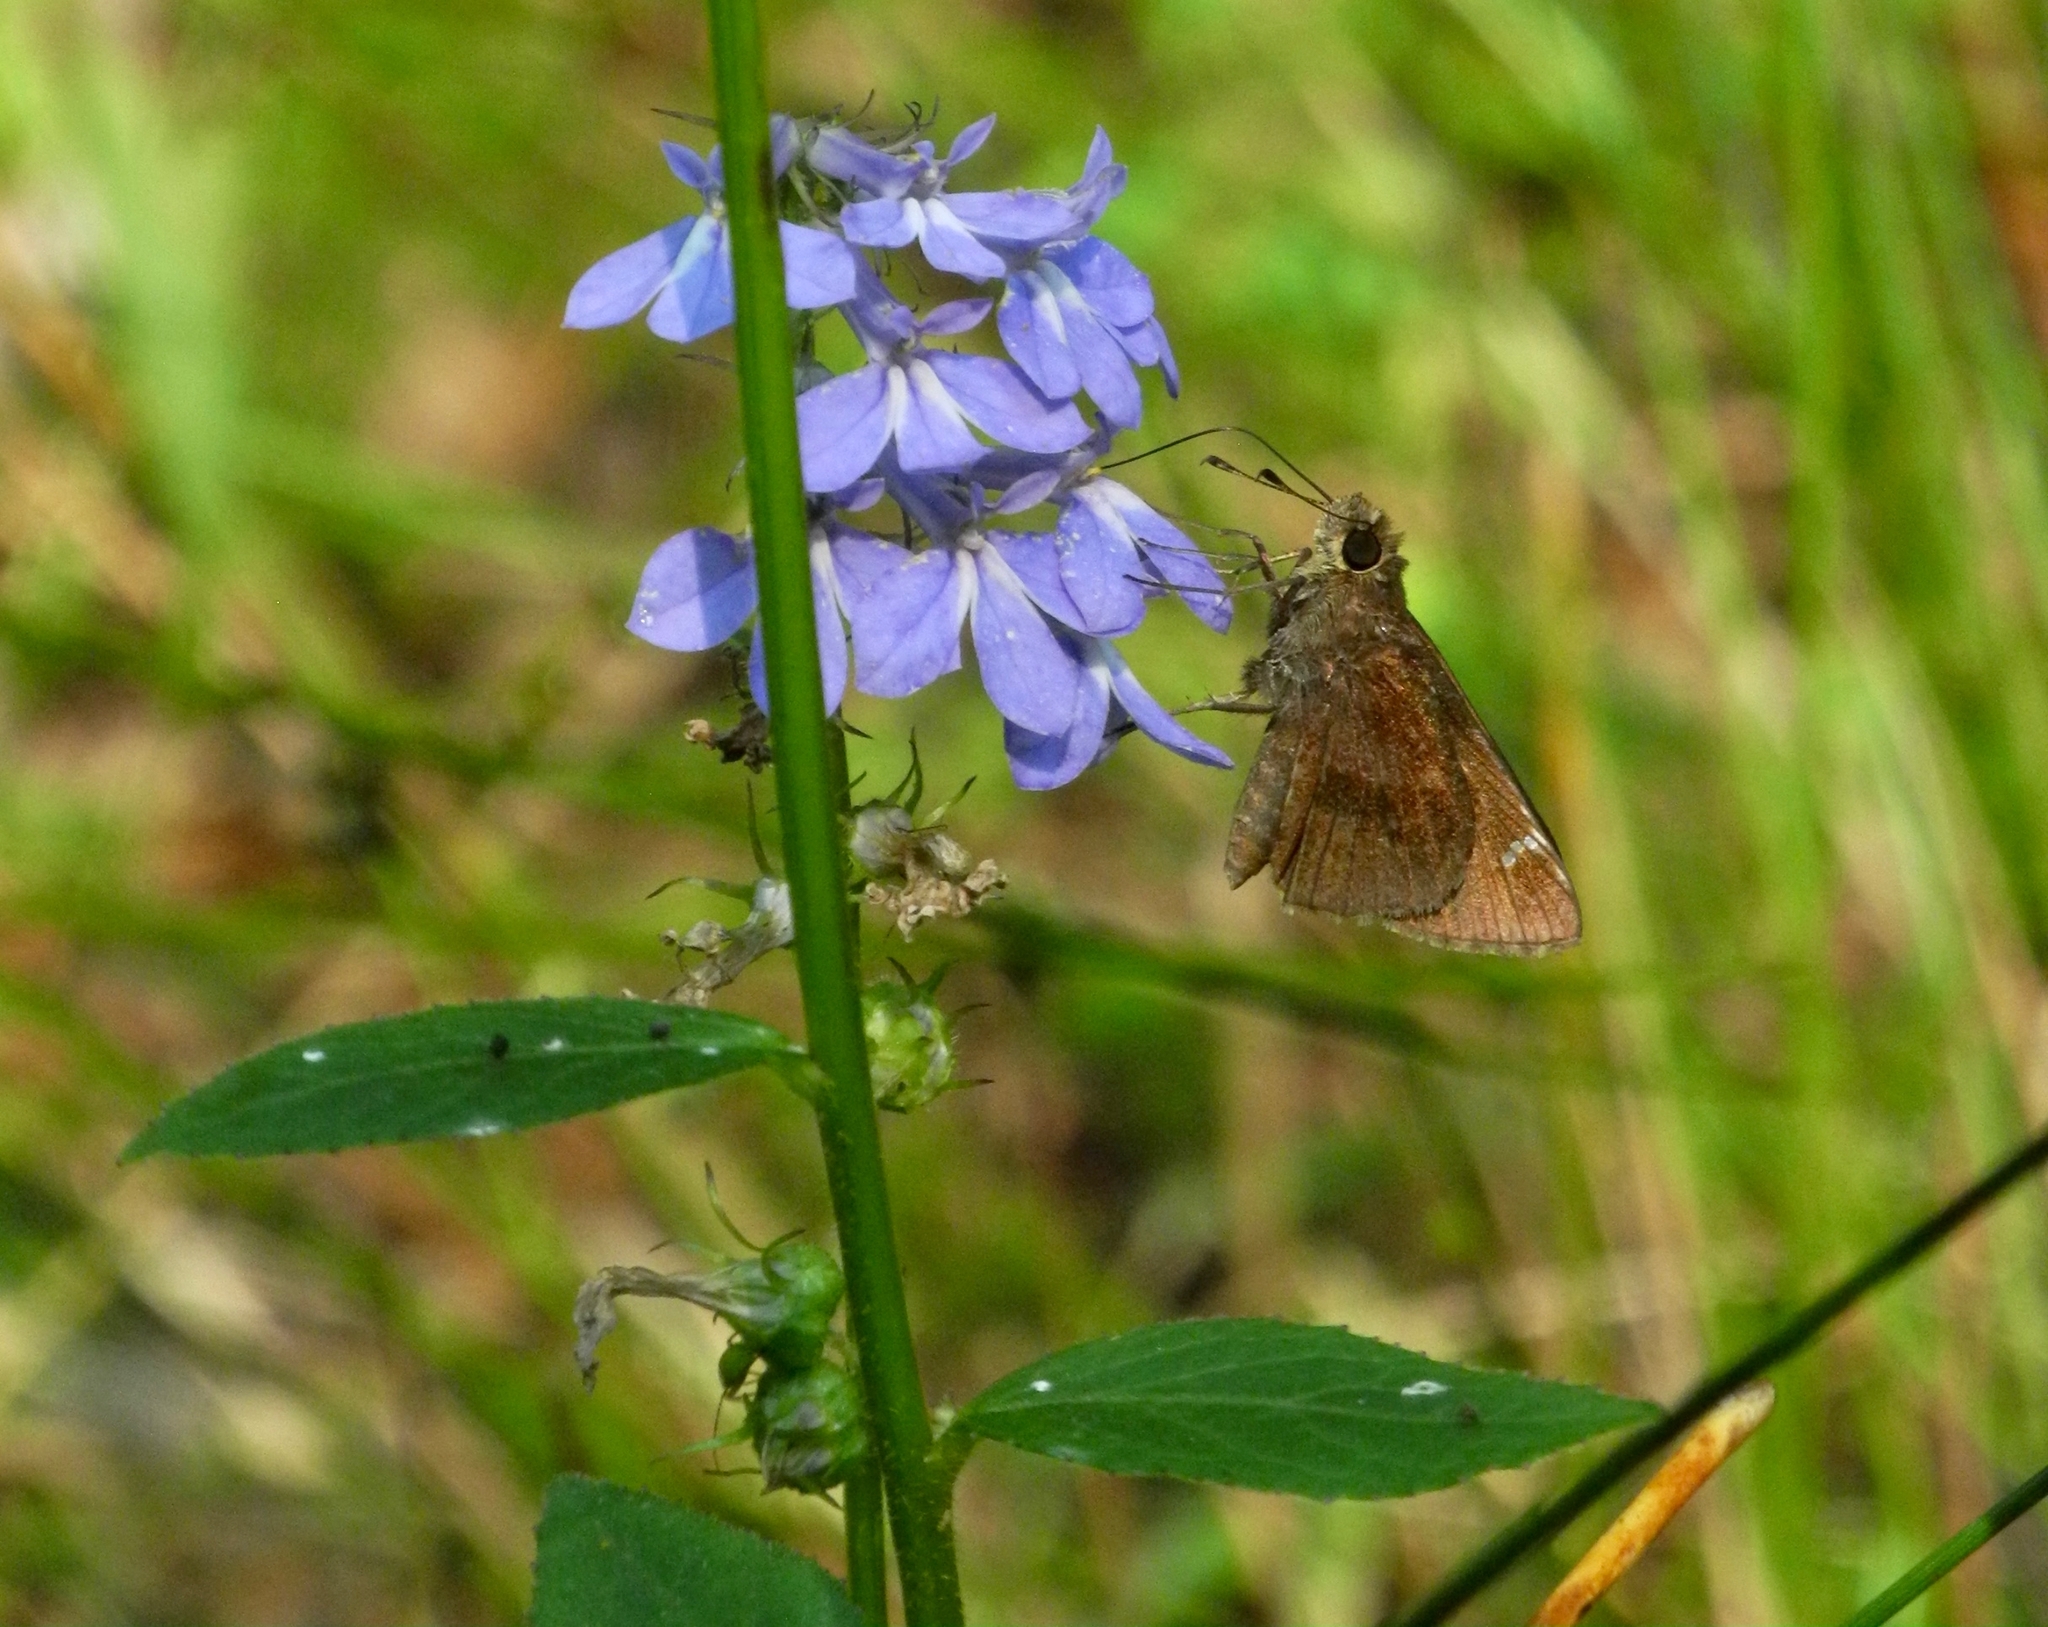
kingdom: Animalia
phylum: Arthropoda
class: Insecta
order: Lepidoptera
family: Hesperiidae
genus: Lerema
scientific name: Lerema accius
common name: Clouded skipper
